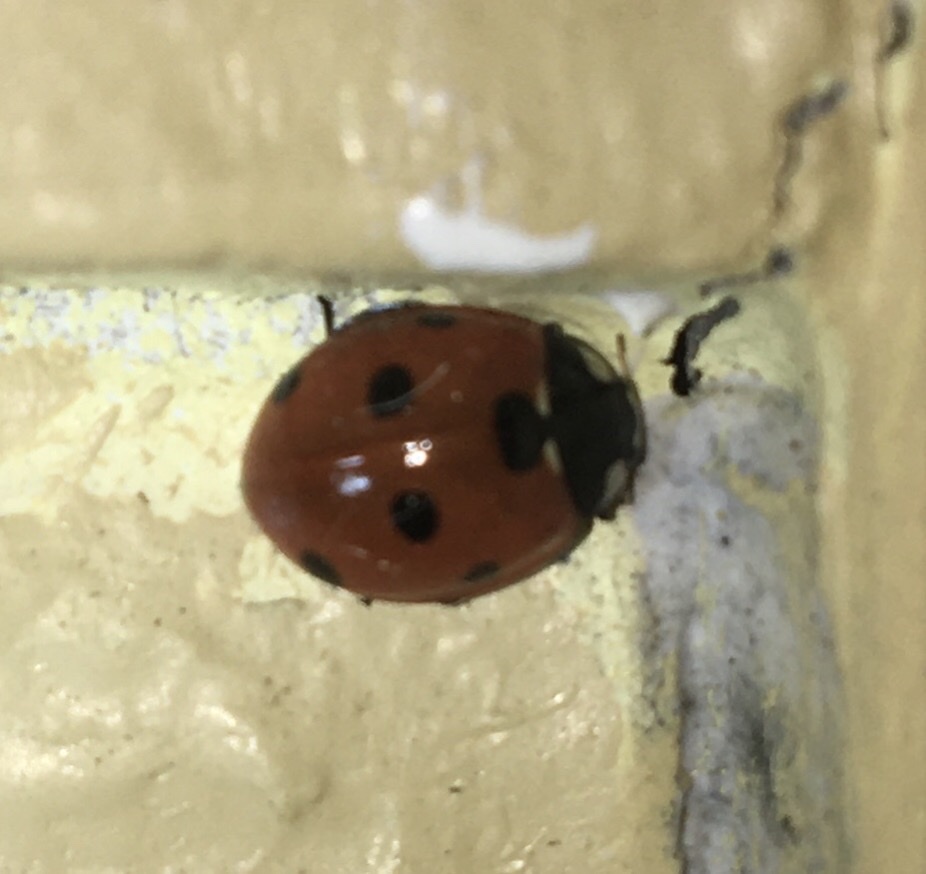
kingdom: Animalia
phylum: Arthropoda
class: Insecta
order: Coleoptera
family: Coccinellidae
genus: Coccinella
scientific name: Coccinella septempunctata
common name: Sevenspotted lady beetle
